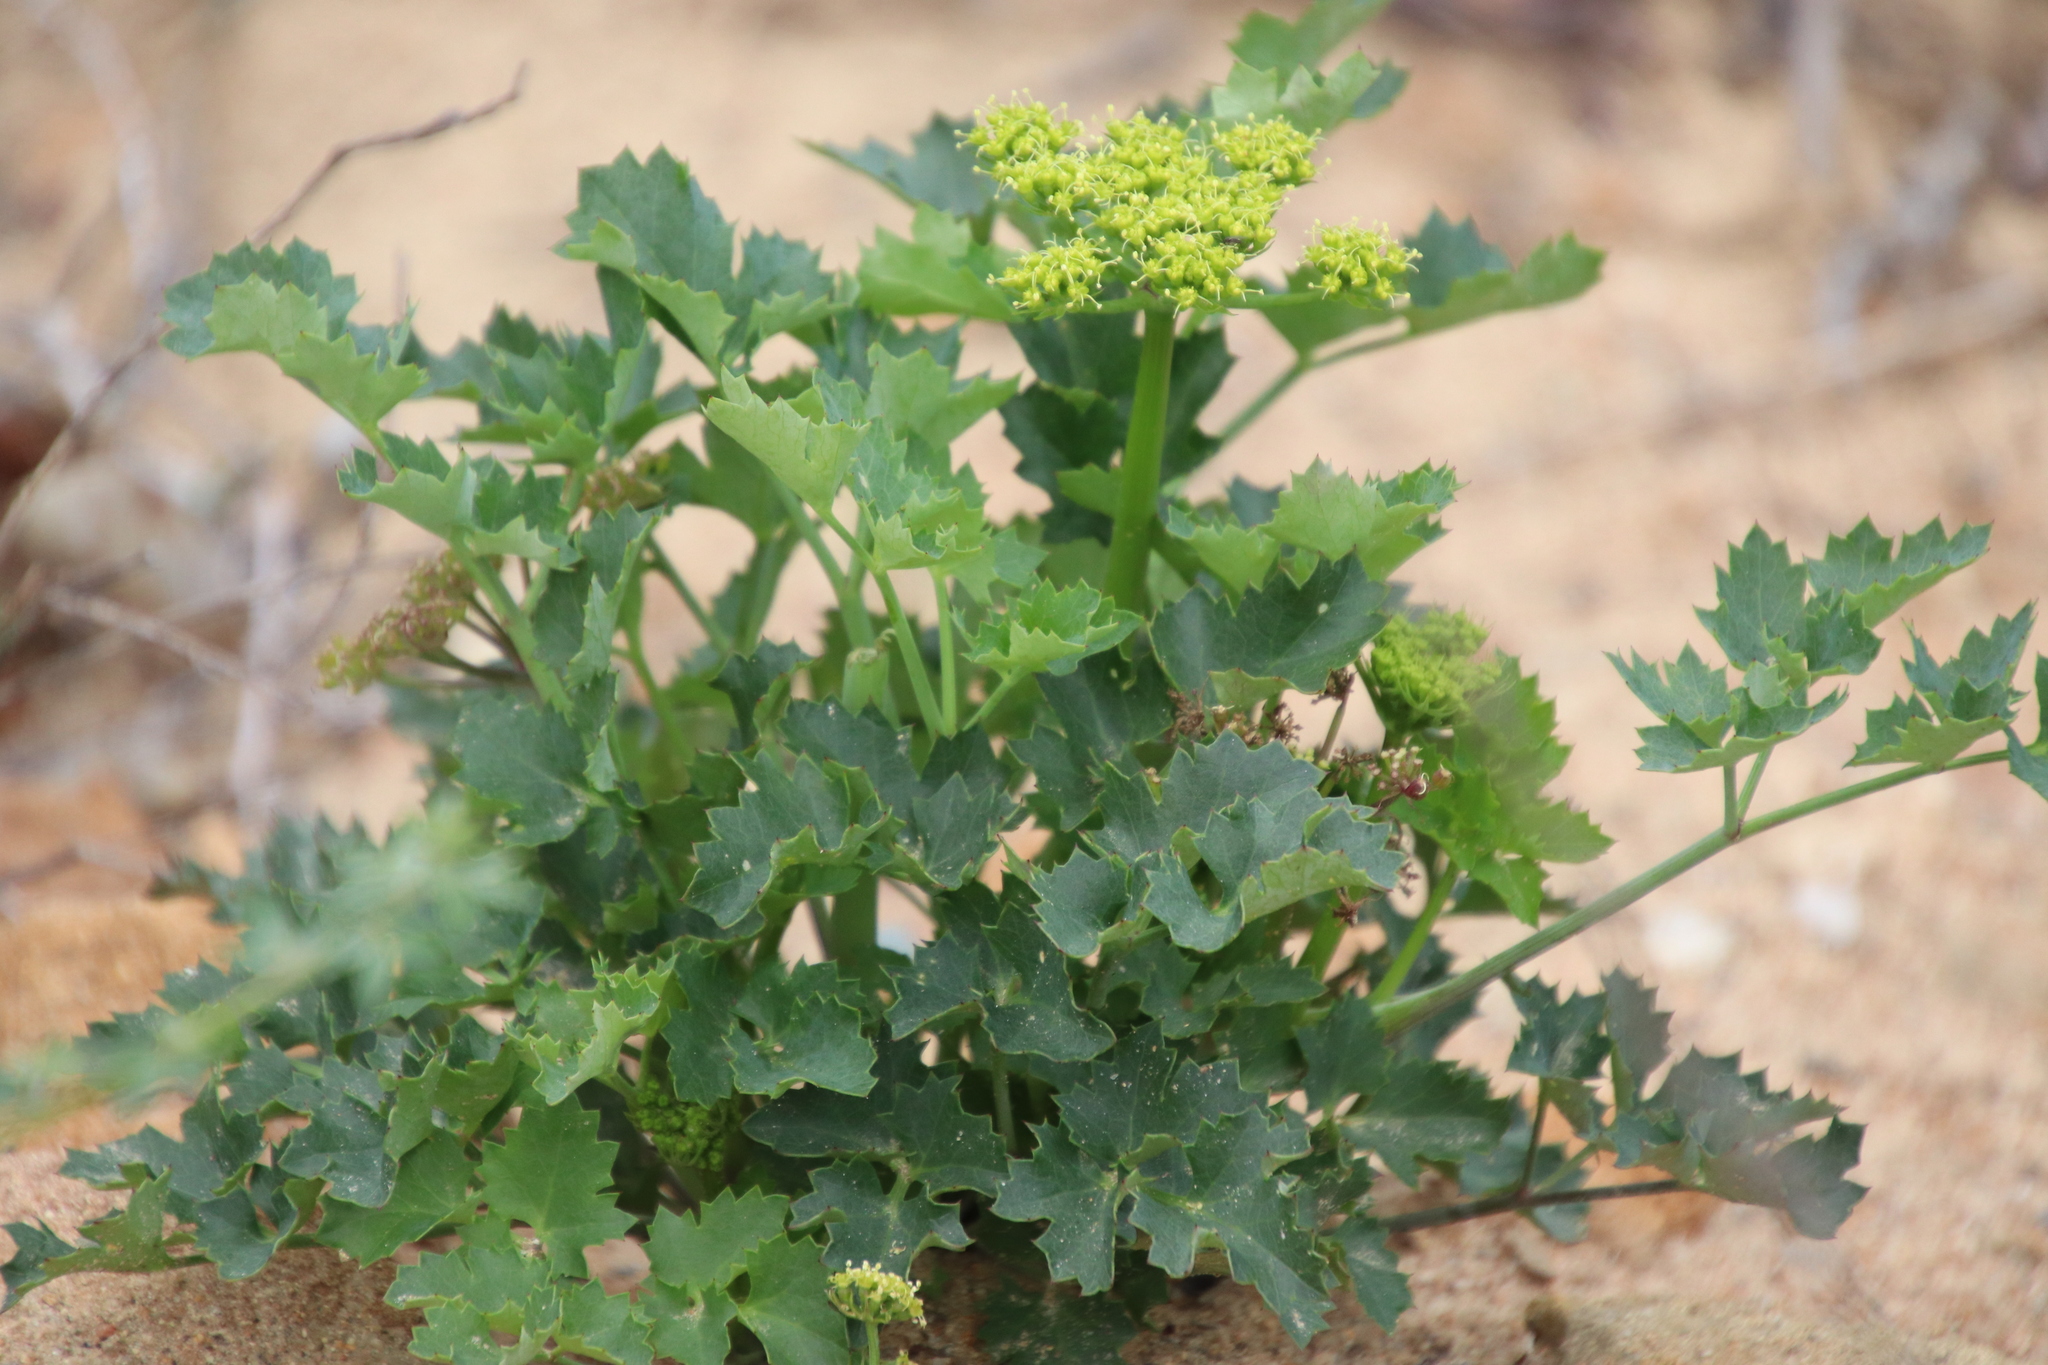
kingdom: Plantae
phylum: Tracheophyta
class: Magnoliopsida
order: Apiales
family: Apiaceae
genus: Lomatium
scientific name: Lomatium lucidum
